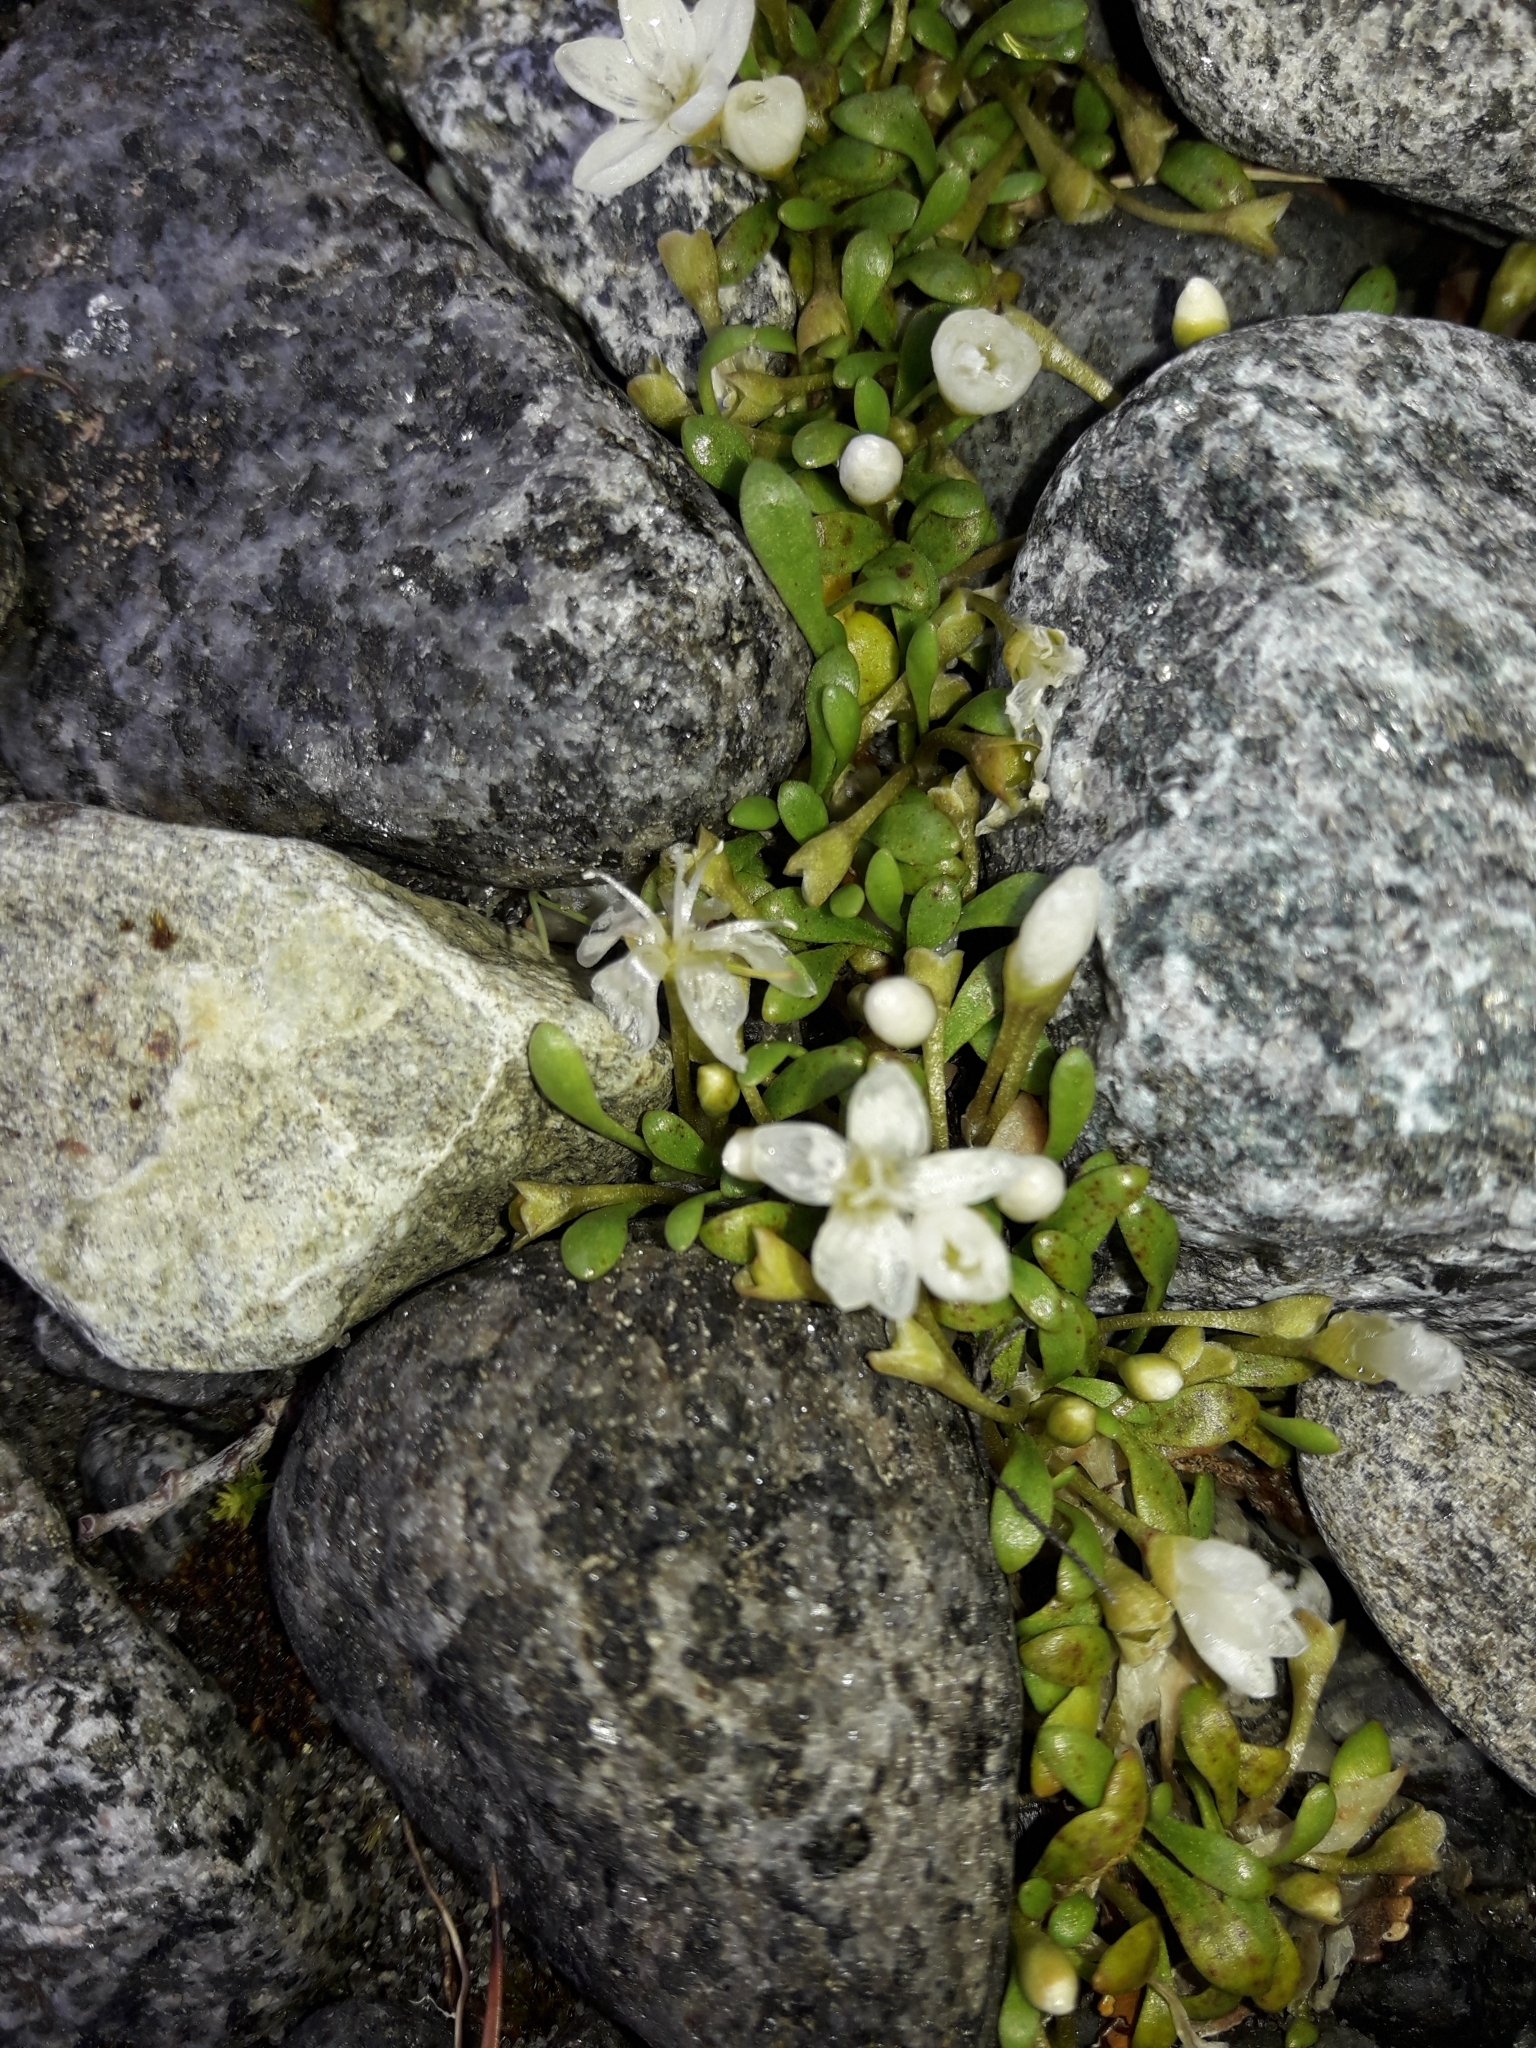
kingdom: Plantae
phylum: Tracheophyta
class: Magnoliopsida
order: Caryophyllales
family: Montiaceae
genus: Montia
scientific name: Montia sessiliflora
